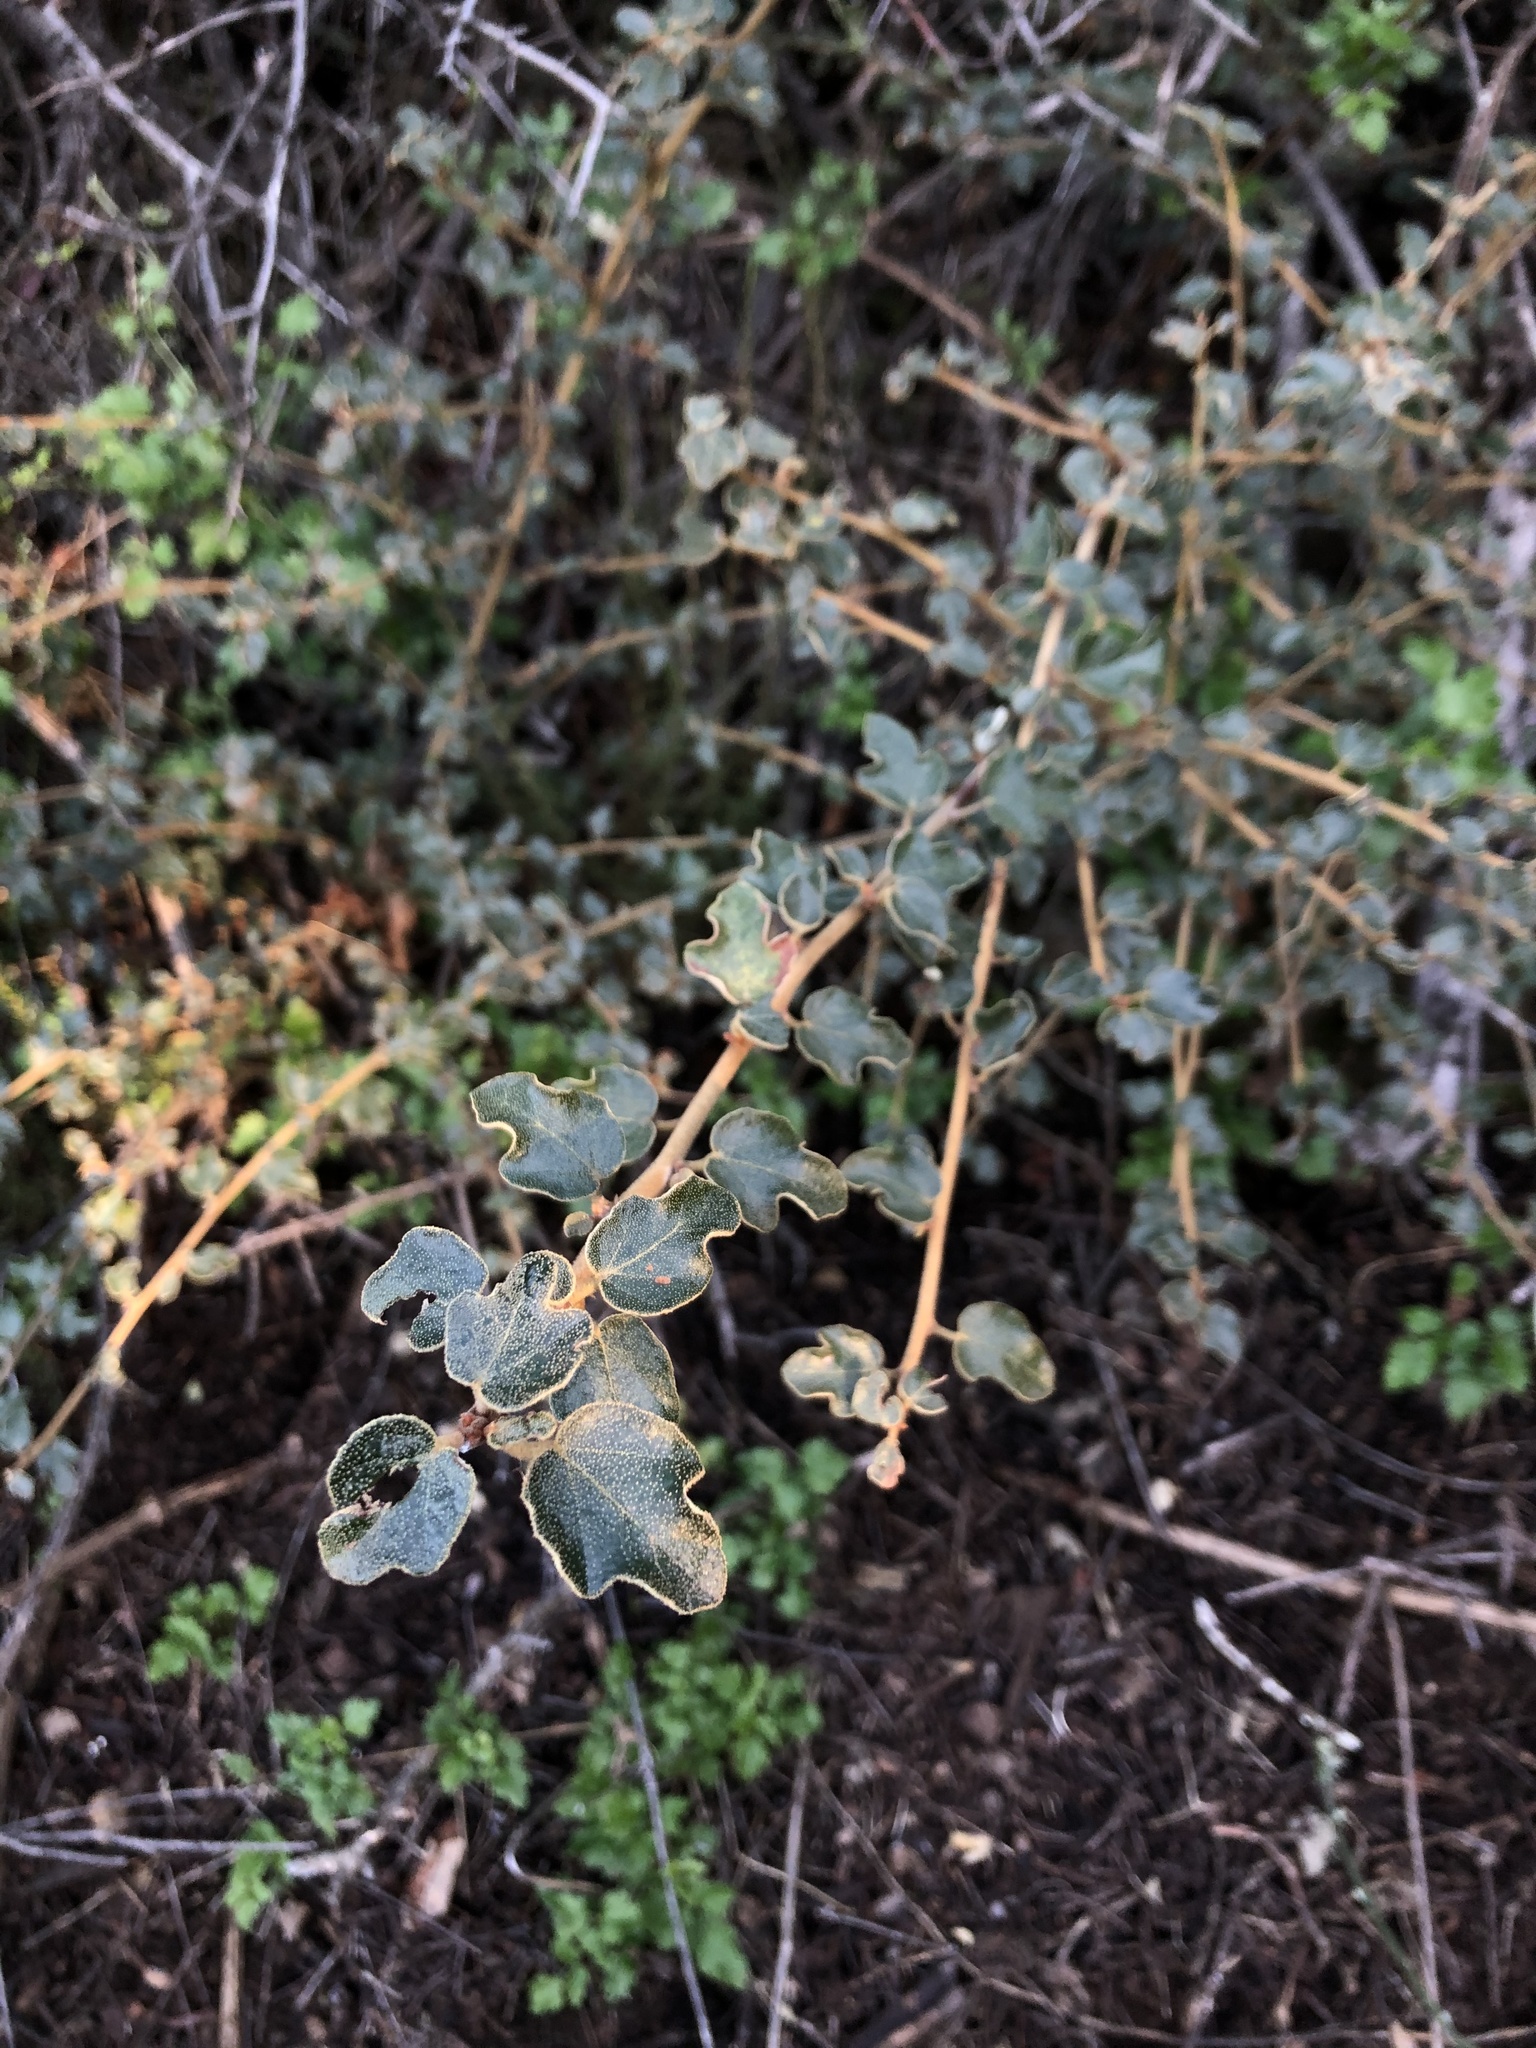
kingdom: Plantae
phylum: Tracheophyta
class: Magnoliopsida
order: Malvales
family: Malvaceae
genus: Fremontodendron
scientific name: Fremontodendron californicum
